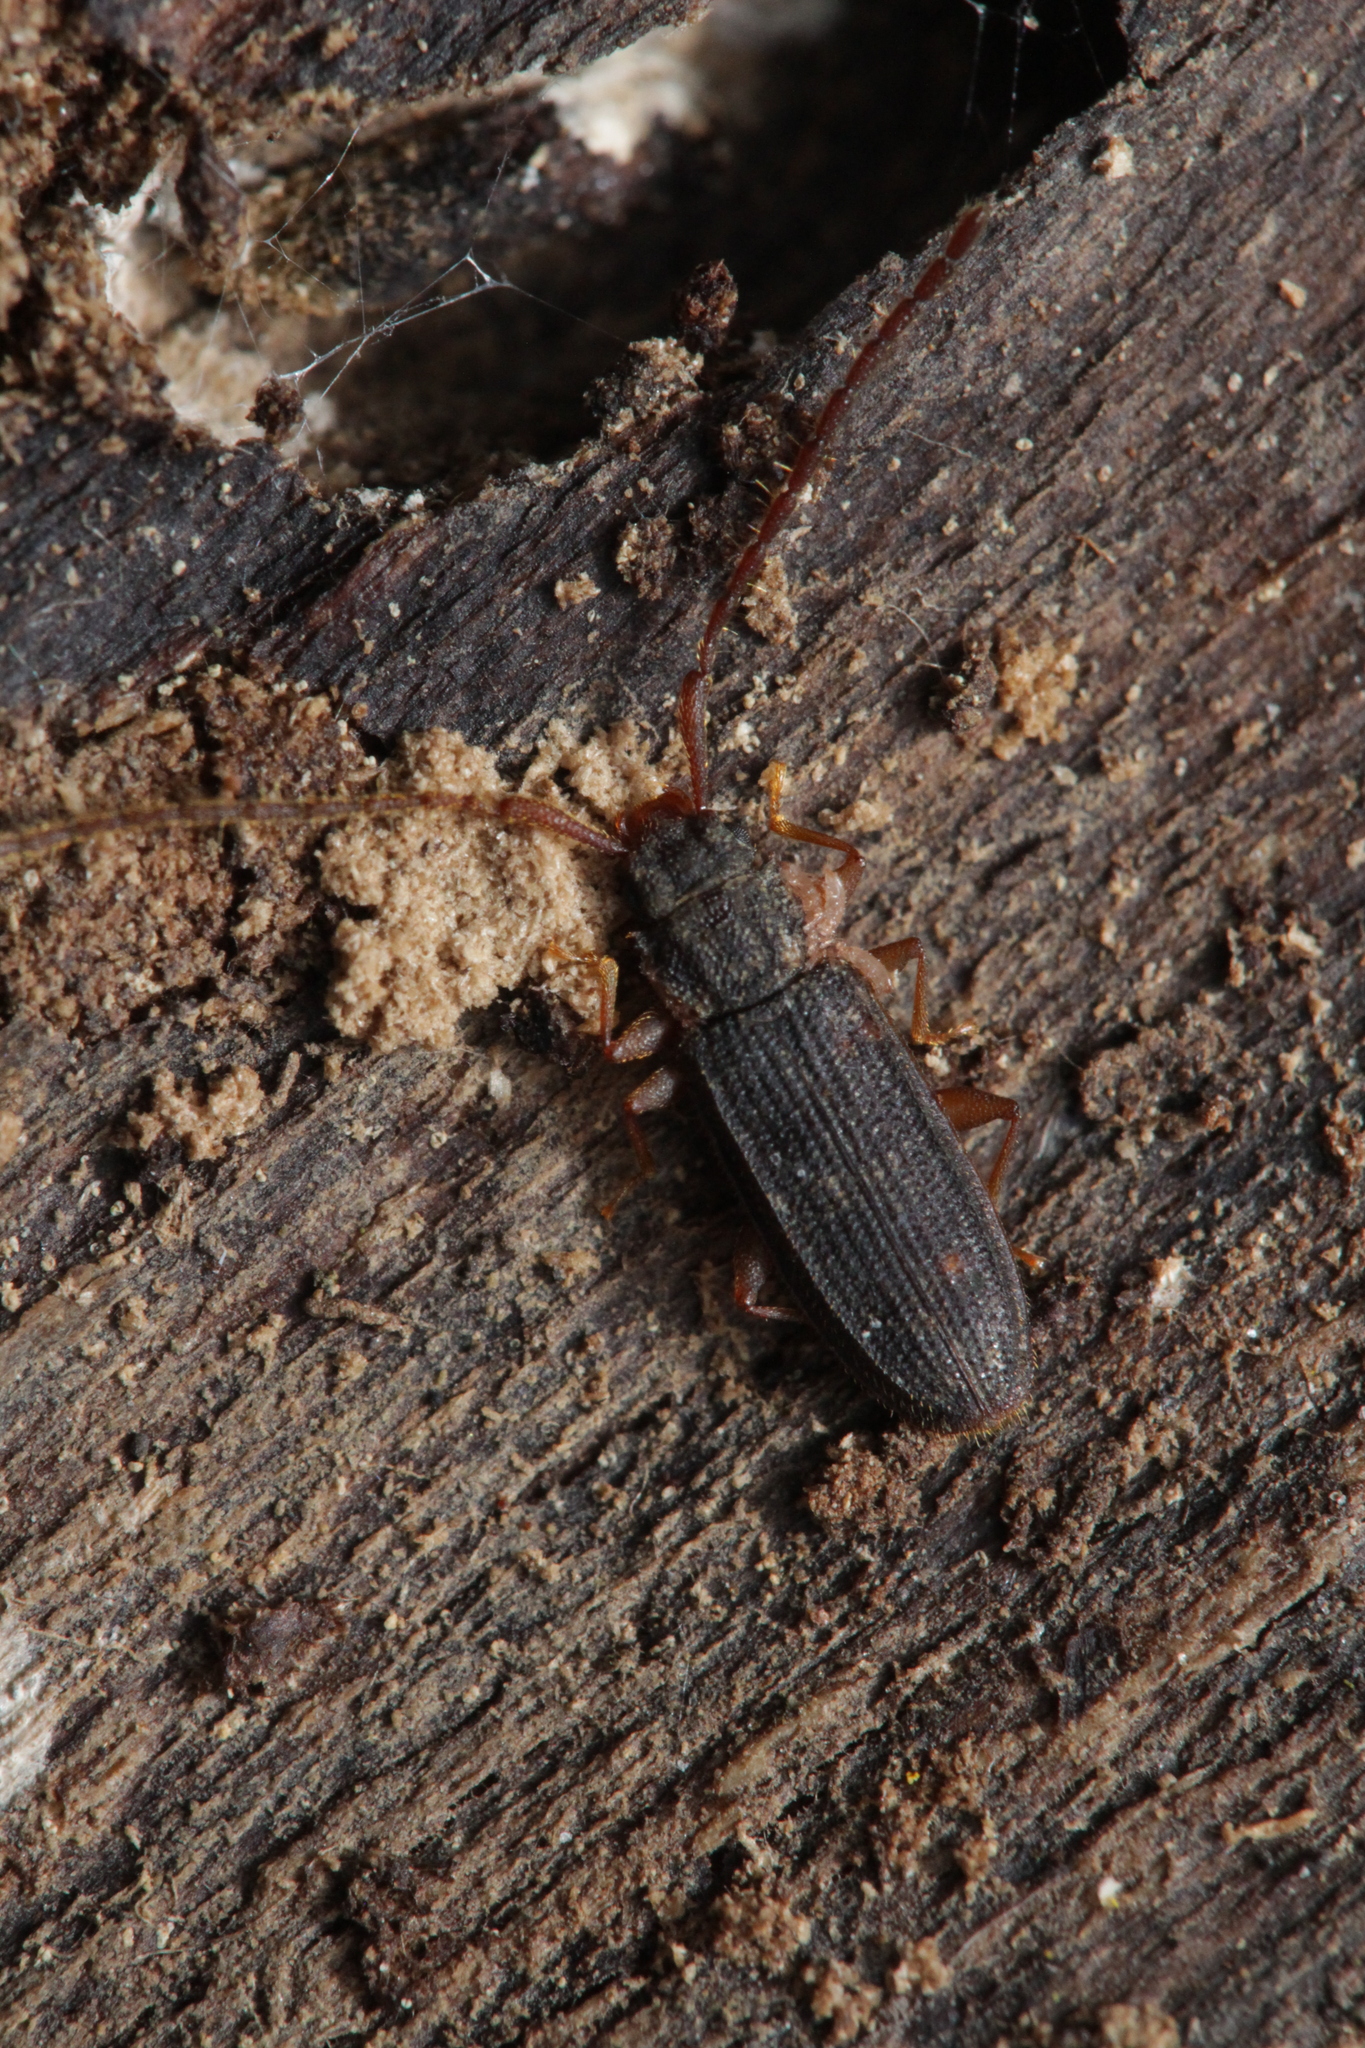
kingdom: Animalia
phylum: Arthropoda
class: Insecta
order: Coleoptera
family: Silvanidae
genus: Uleiota
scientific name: Uleiota planatus
